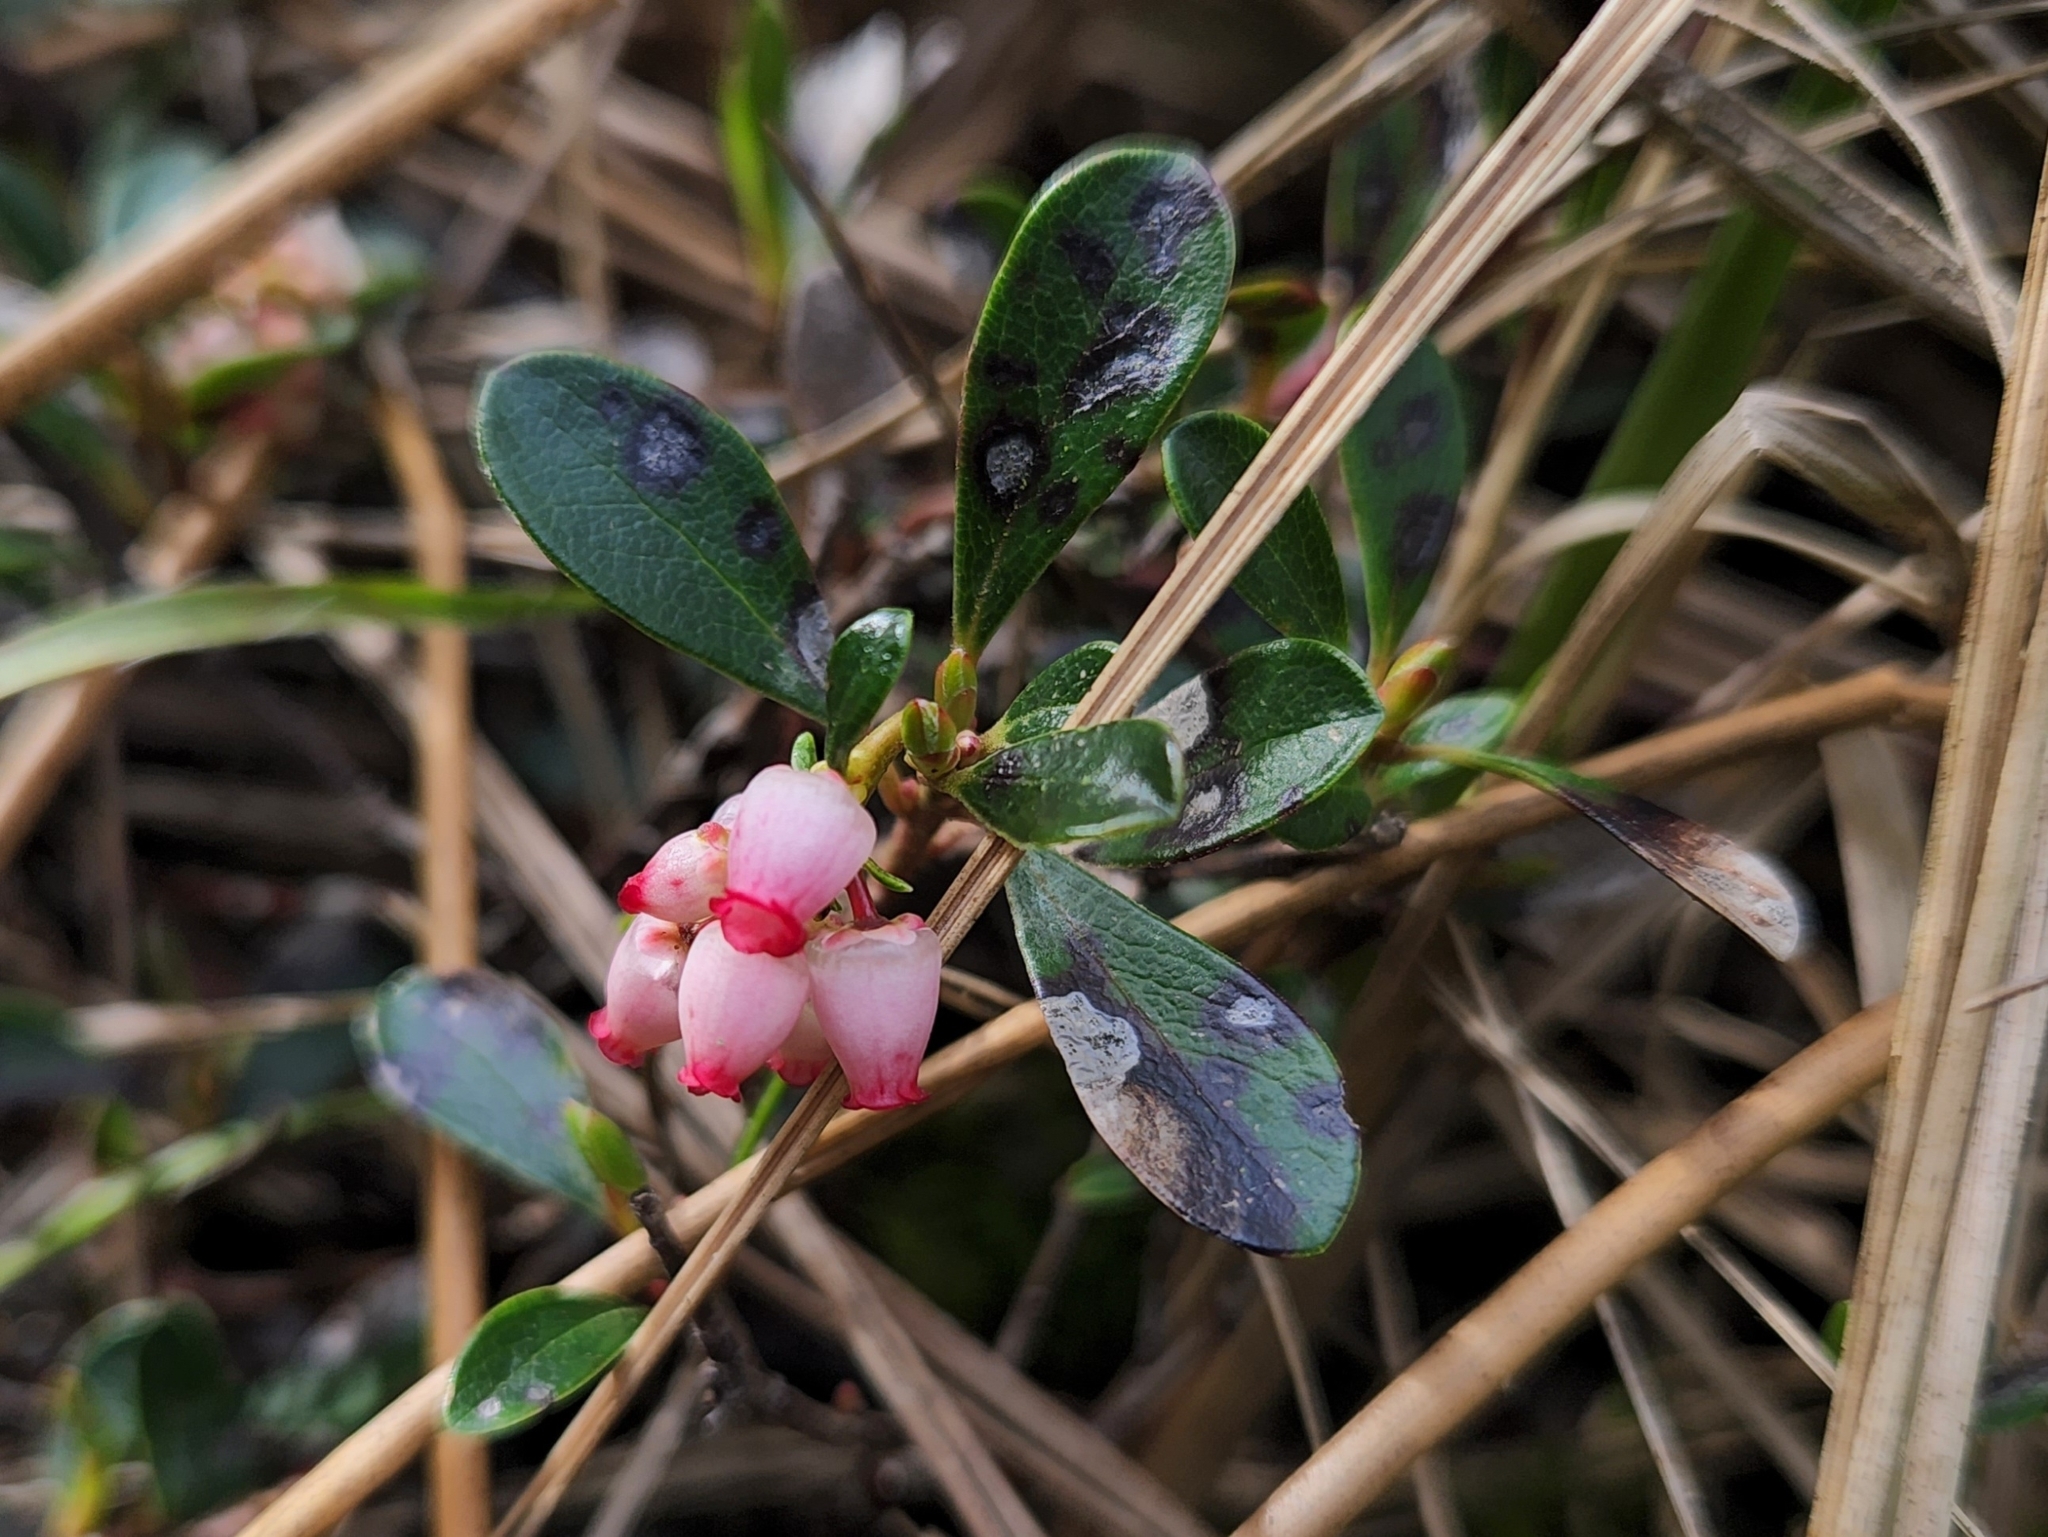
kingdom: Plantae
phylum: Tracheophyta
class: Magnoliopsida
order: Ericales
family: Ericaceae
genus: Arctostaphylos
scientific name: Arctostaphylos uva-ursi
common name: Bearberry
